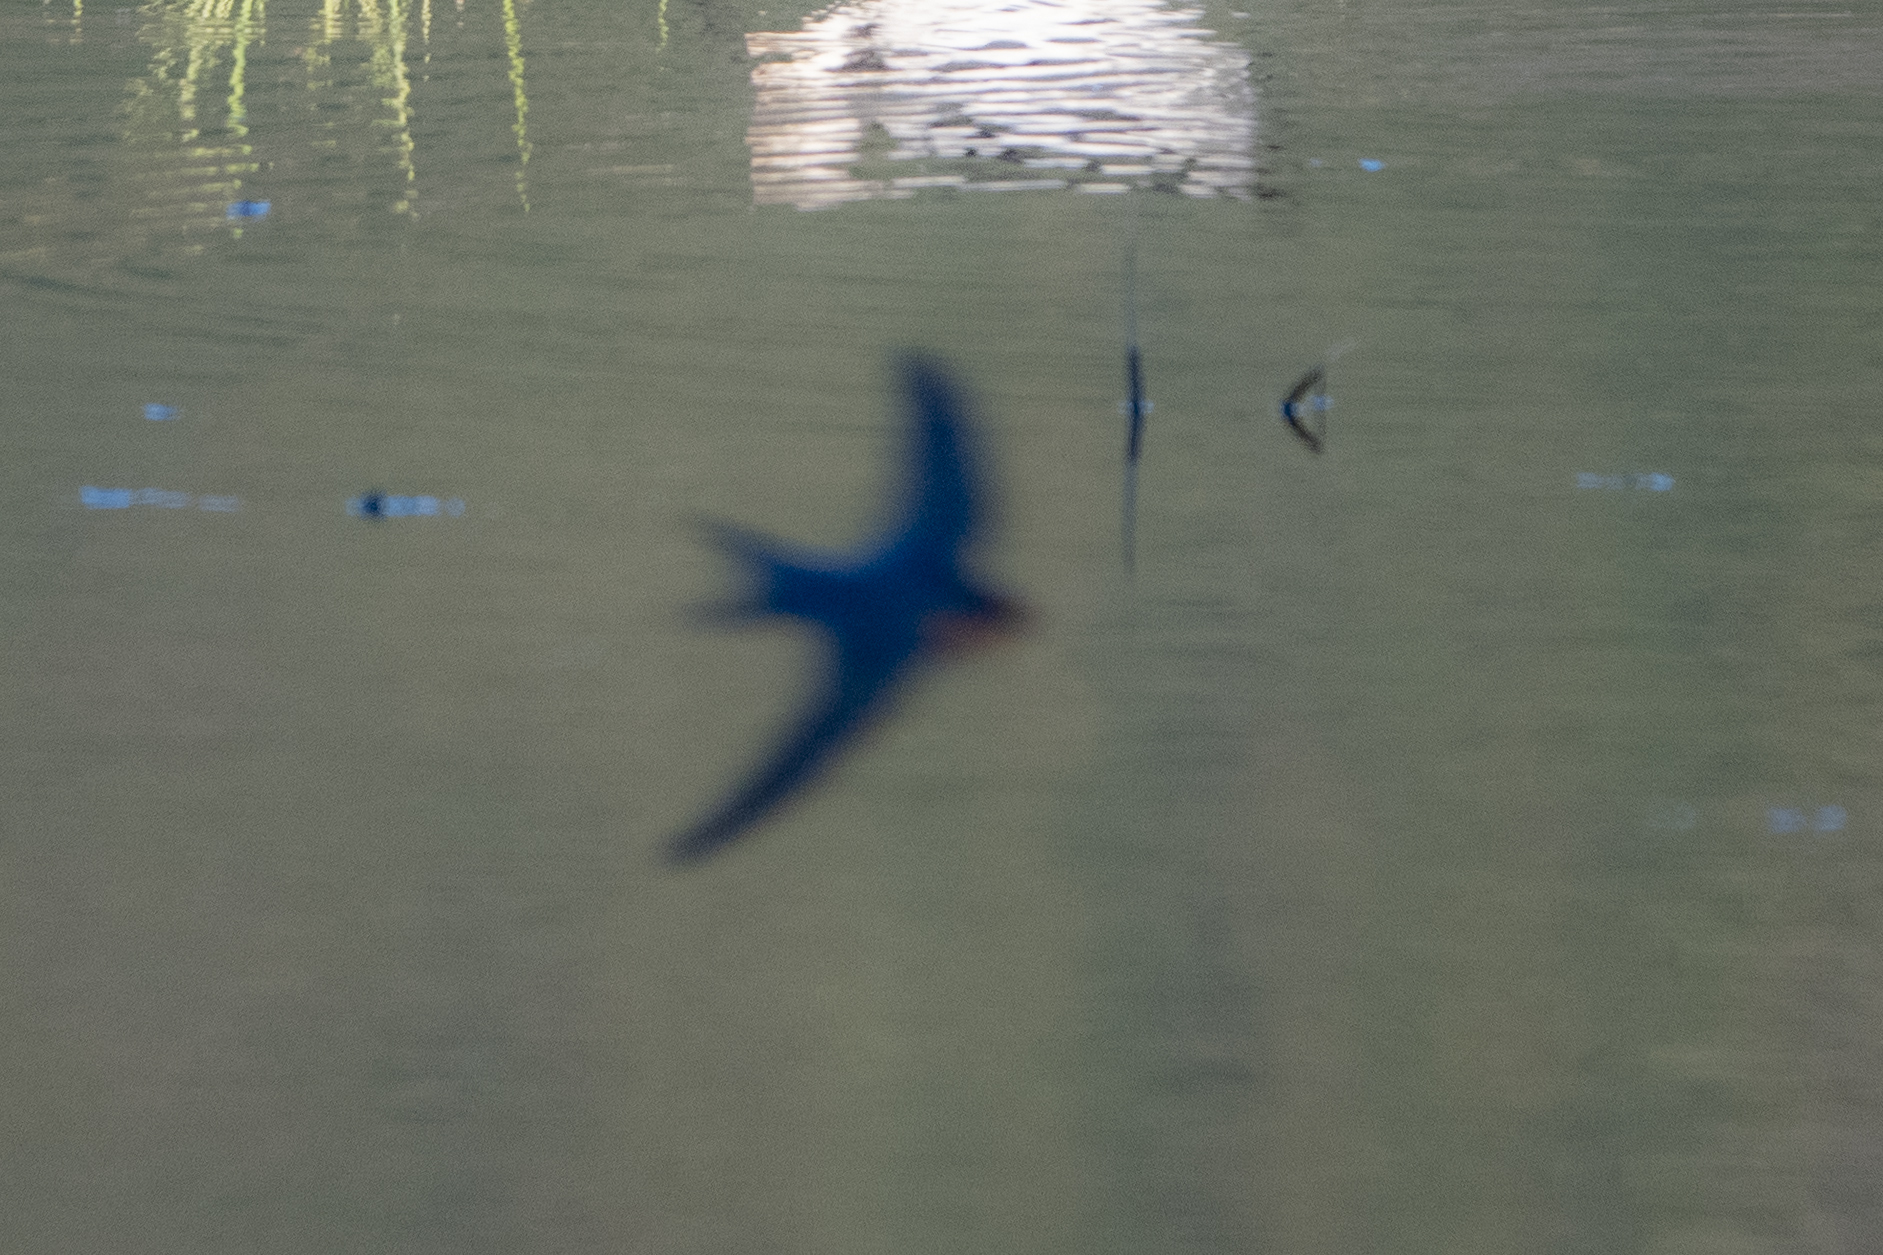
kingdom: Animalia
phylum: Chordata
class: Aves
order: Passeriformes
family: Hirundinidae
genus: Hirundo
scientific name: Hirundo neoxena
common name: Welcome swallow
